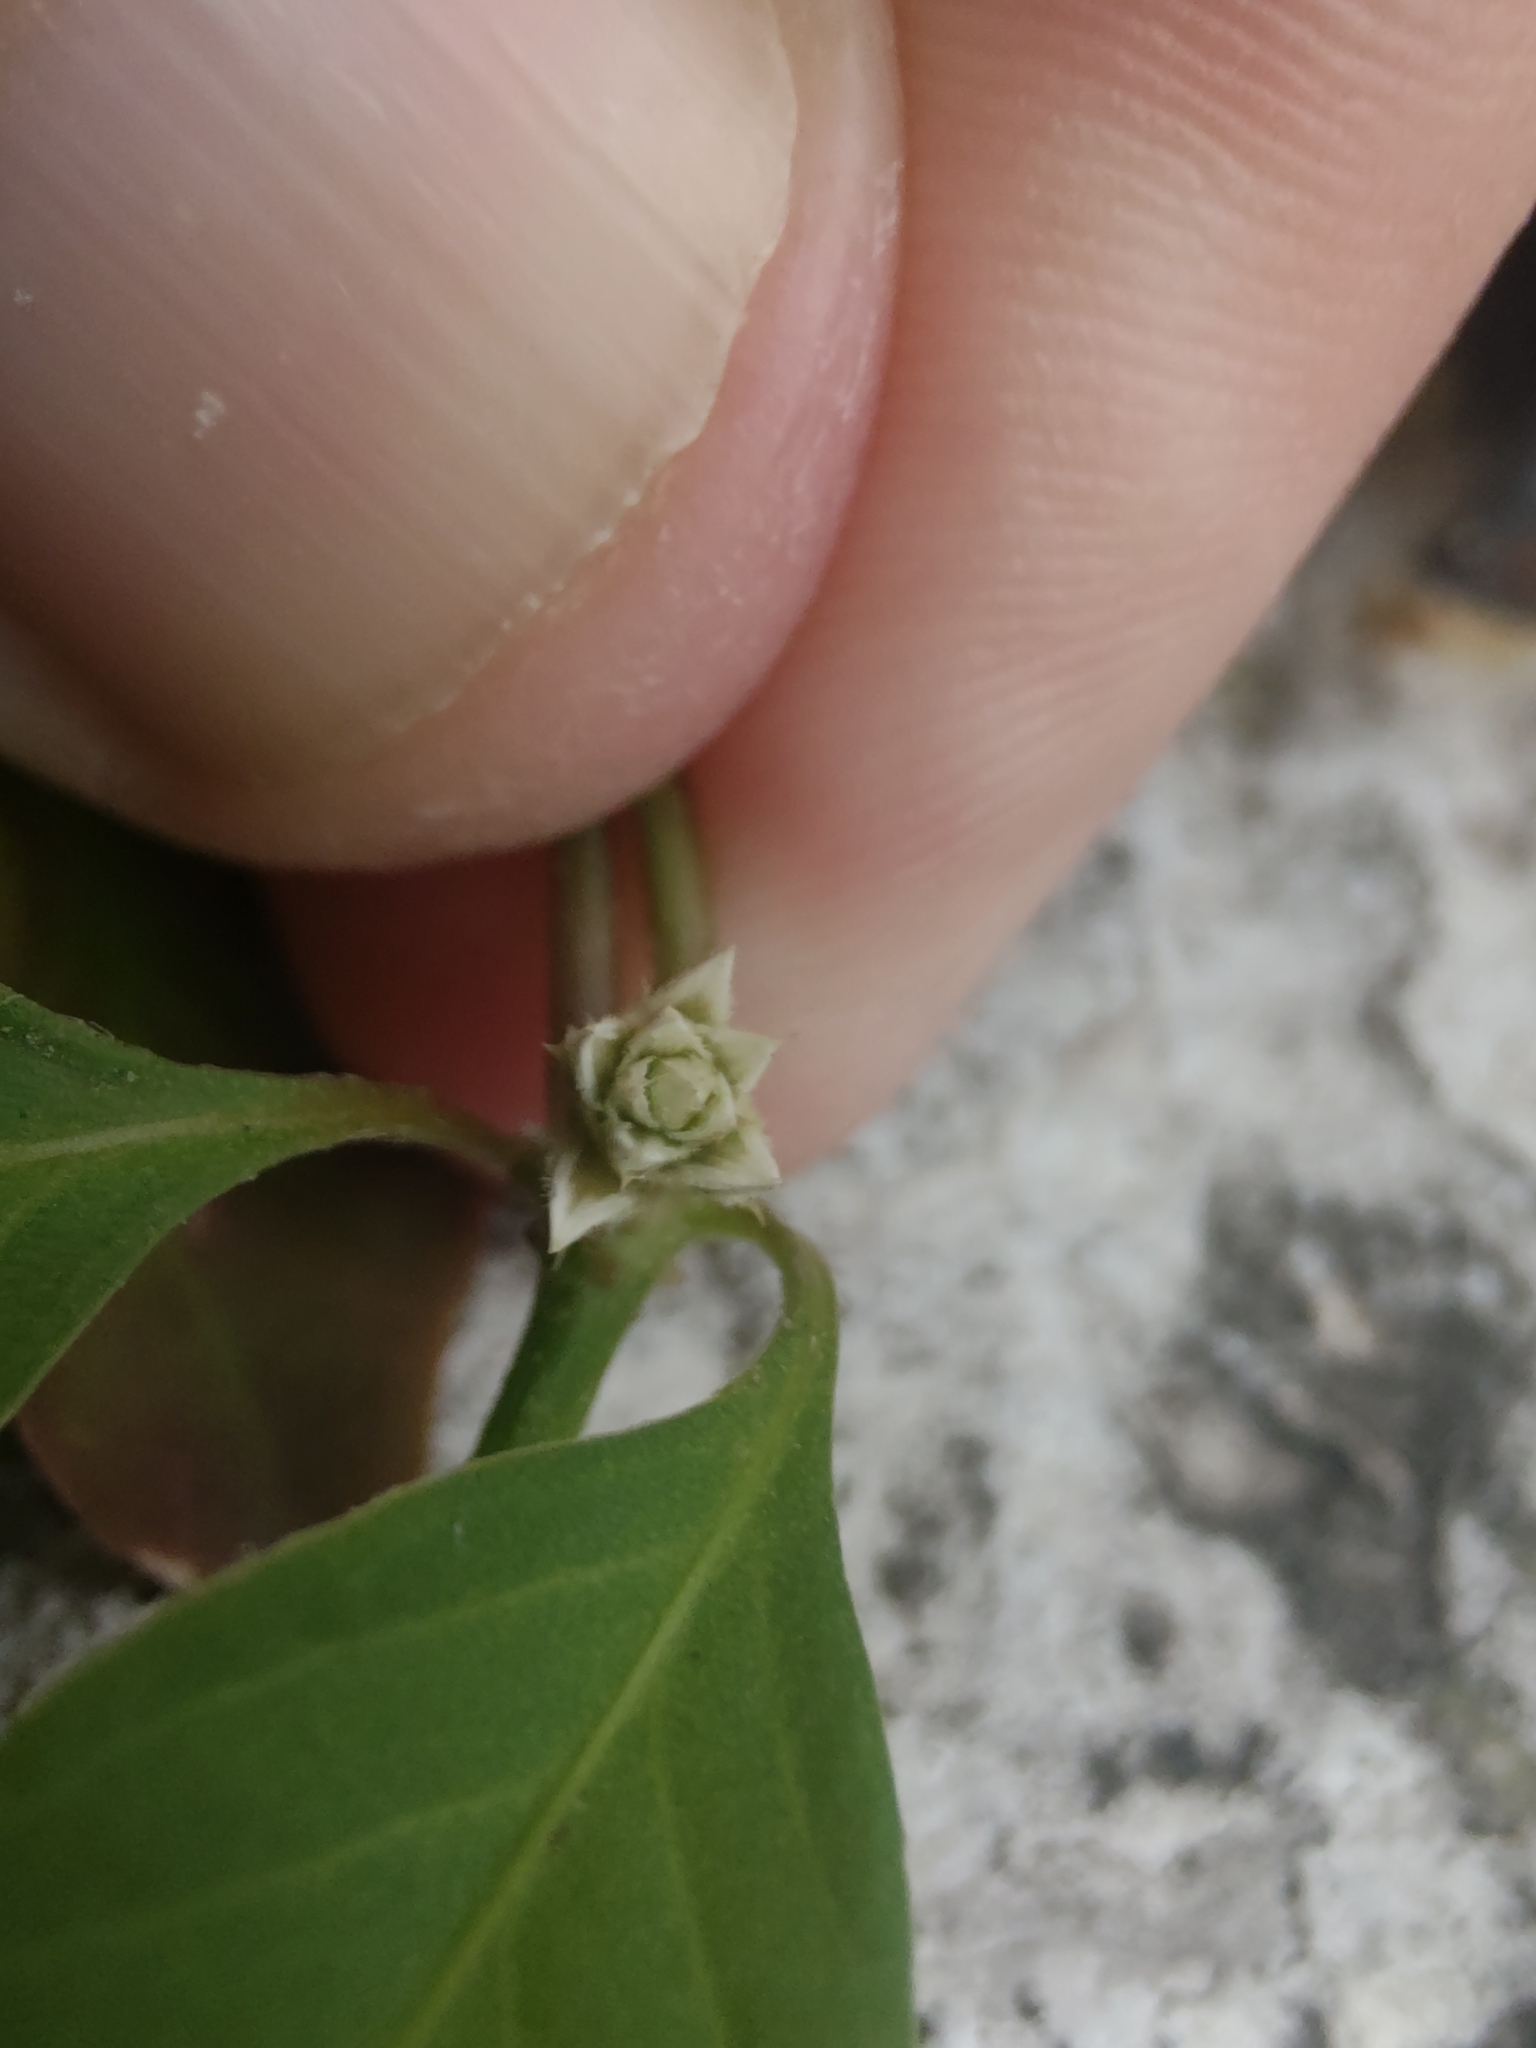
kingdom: Plantae
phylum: Tracheophyta
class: Magnoliopsida
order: Caryophyllales
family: Amaranthaceae
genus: Alternanthera
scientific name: Alternanthera kurtzii
